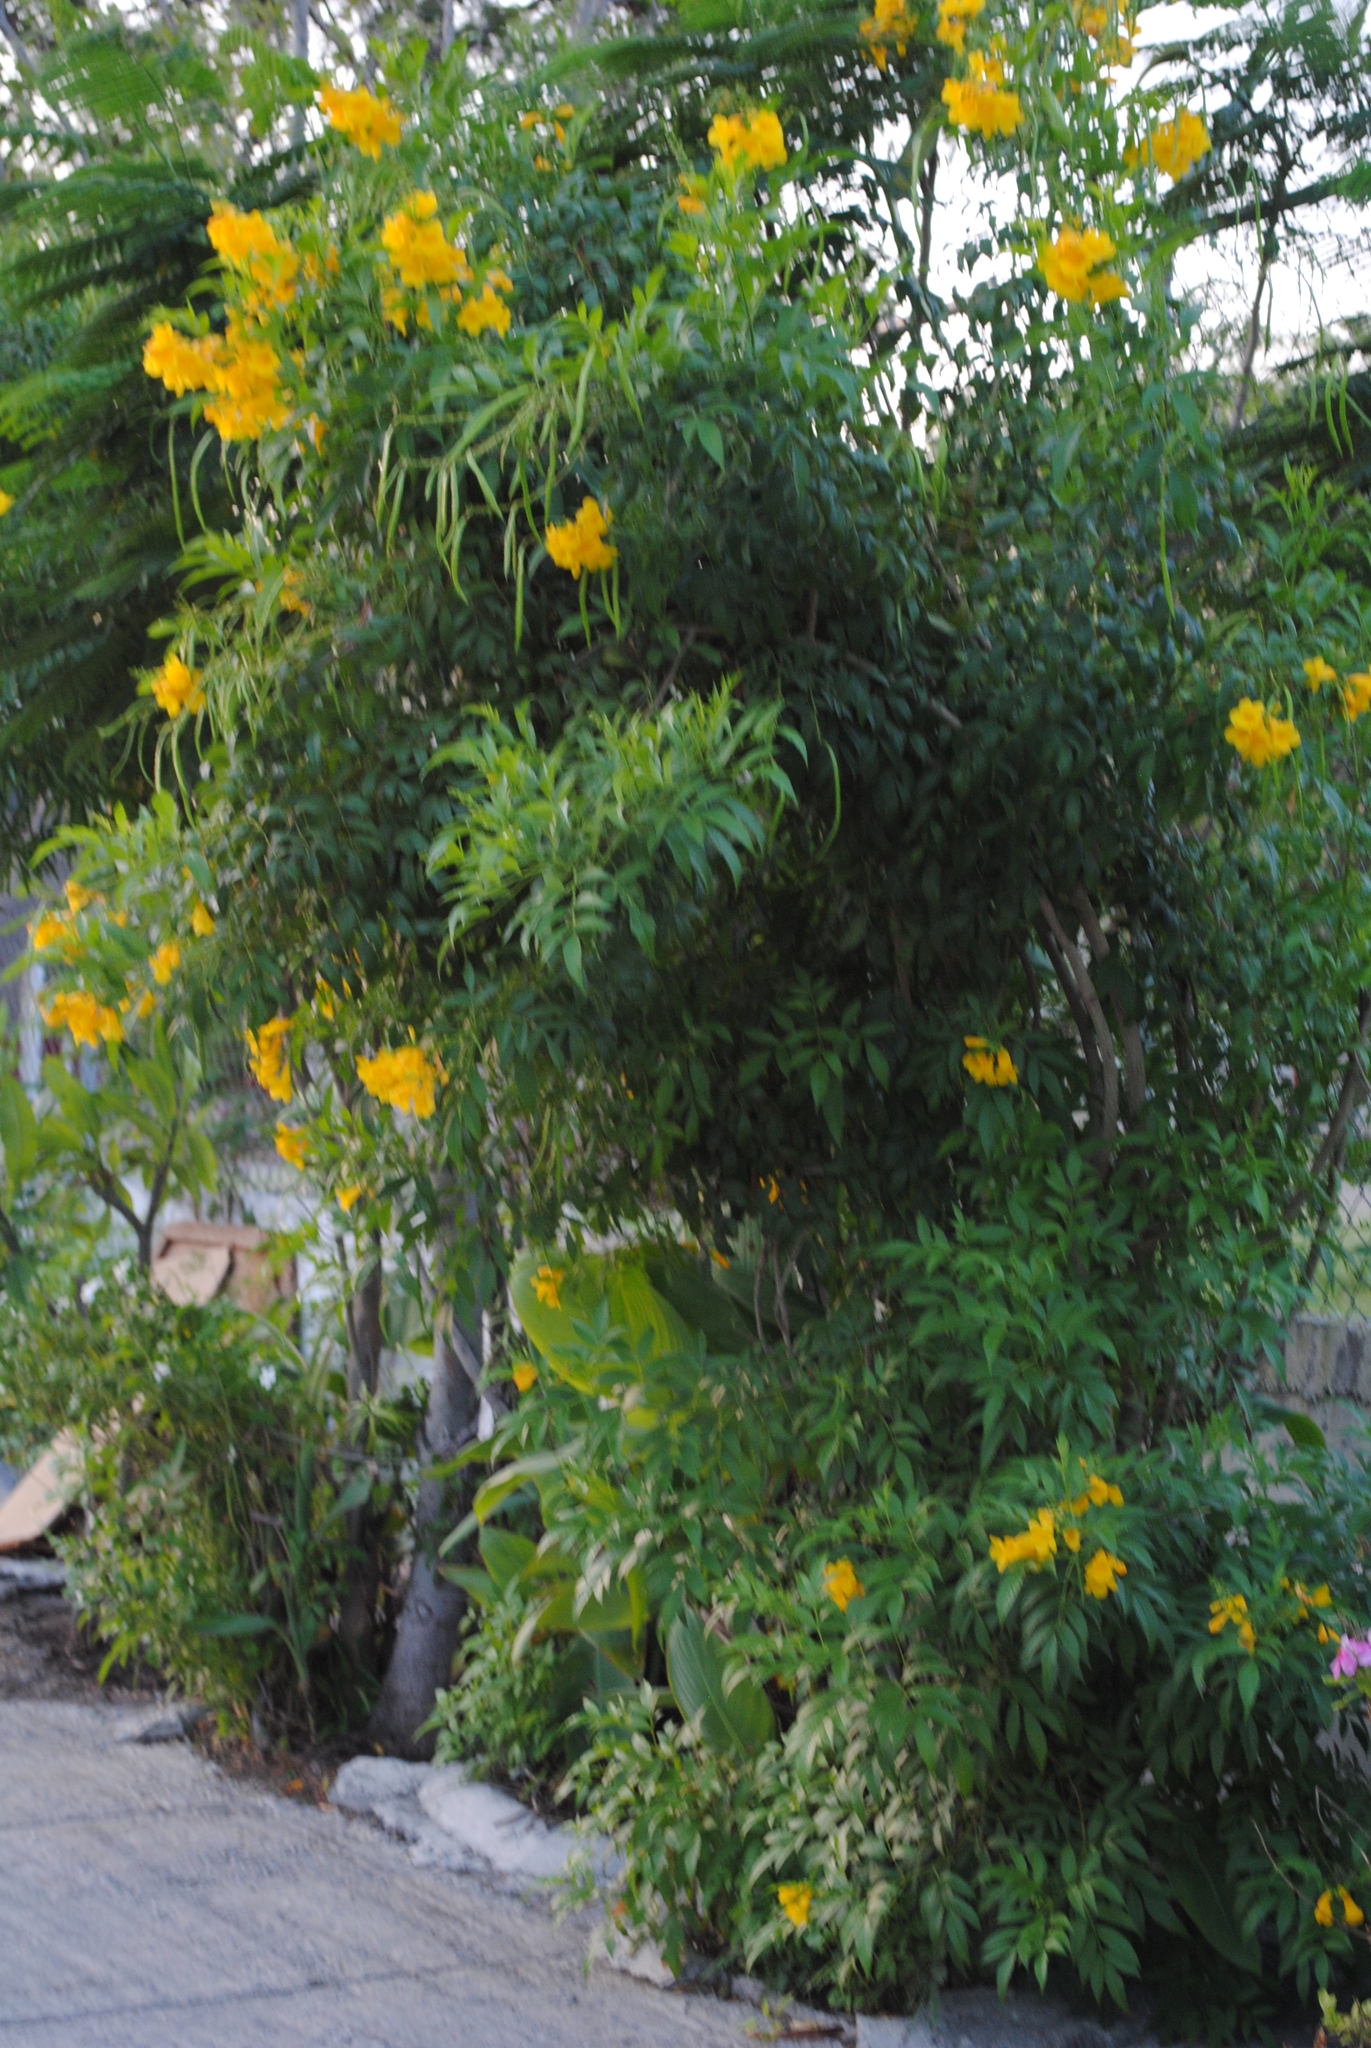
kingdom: Plantae
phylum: Tracheophyta
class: Magnoliopsida
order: Lamiales
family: Bignoniaceae
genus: Tecoma
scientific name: Tecoma stans
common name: Yellow trumpetbush
